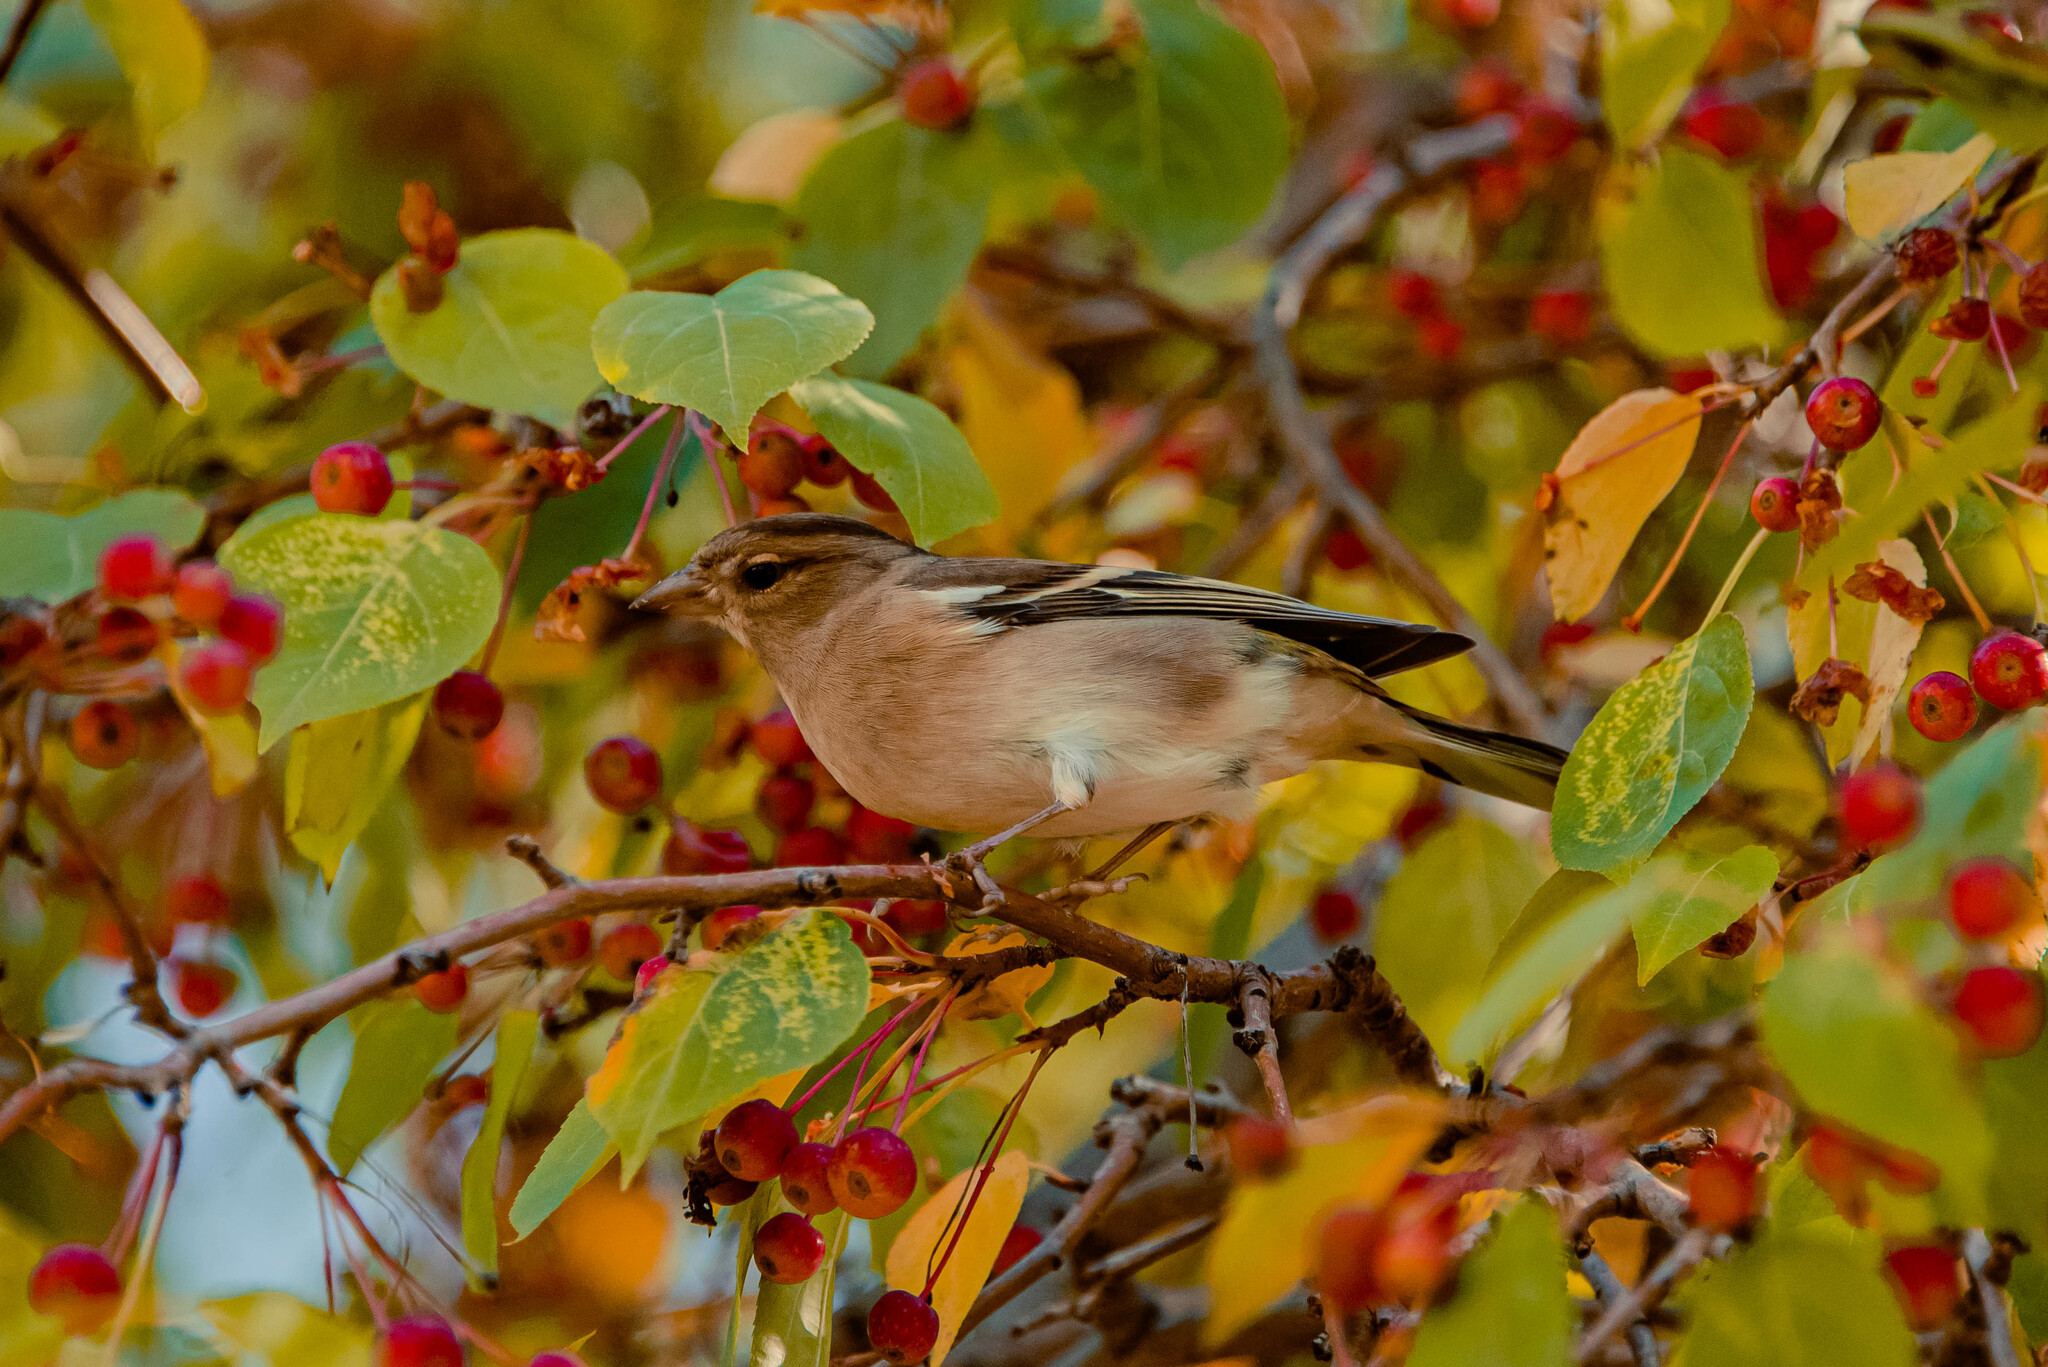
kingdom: Animalia
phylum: Chordata
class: Aves
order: Passeriformes
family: Fringillidae
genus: Fringilla
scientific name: Fringilla coelebs
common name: Common chaffinch
